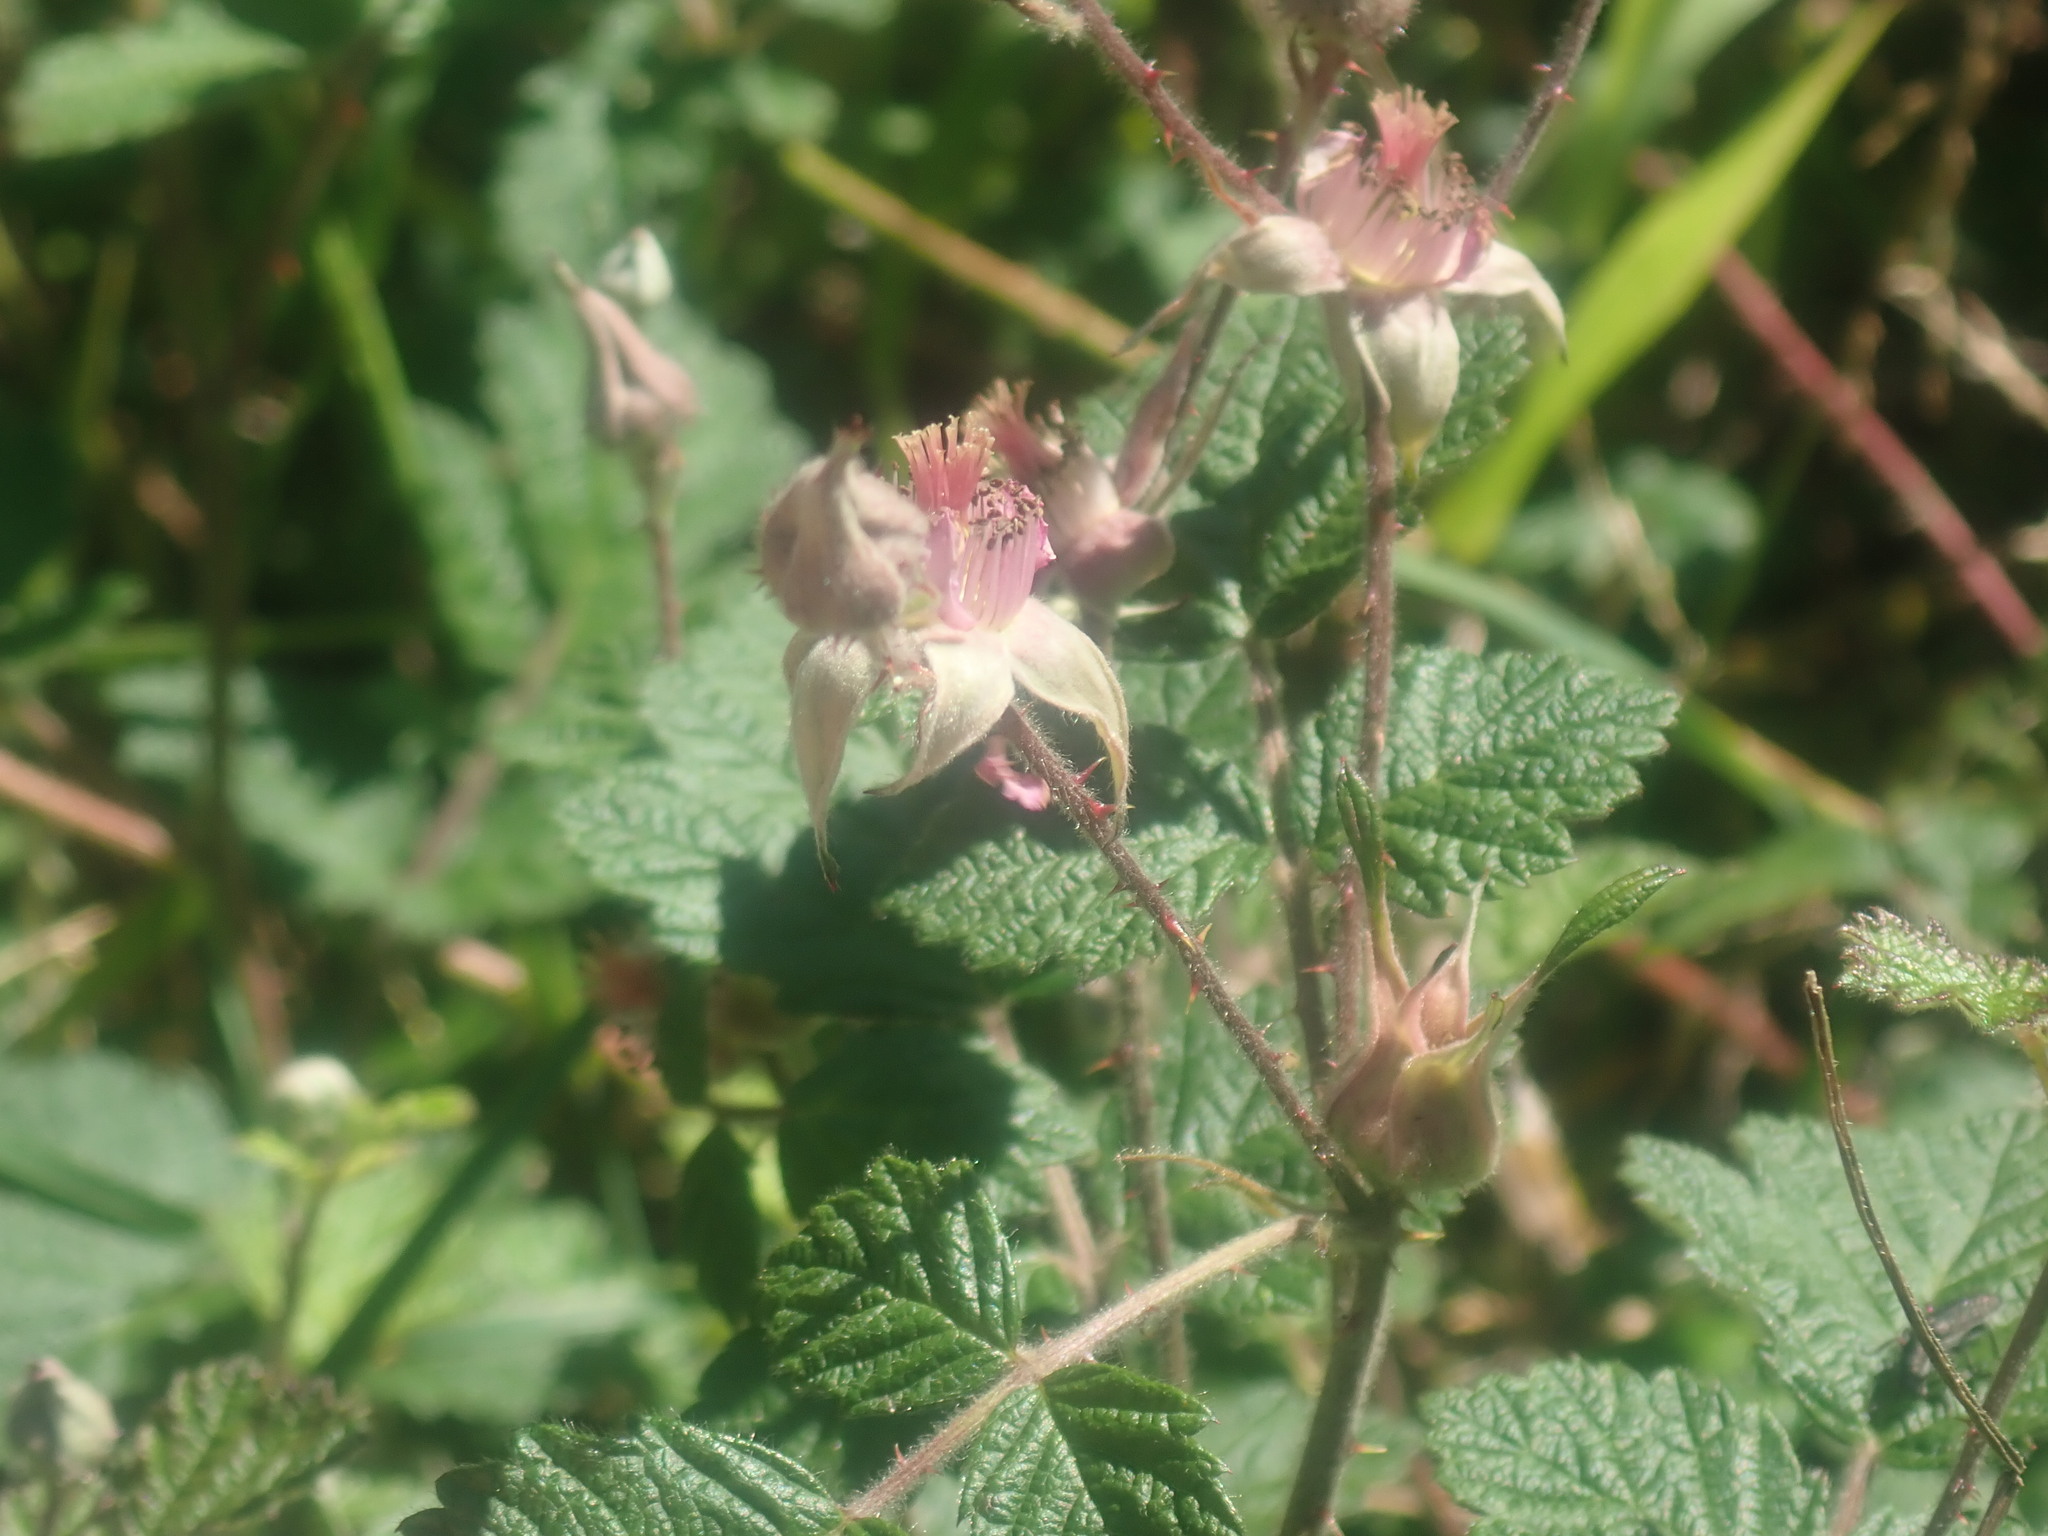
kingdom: Plantae
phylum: Tracheophyta
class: Magnoliopsida
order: Rosales
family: Rosaceae
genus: Rubus
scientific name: Rubus parvifolius
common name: Threeleaf blackberry
